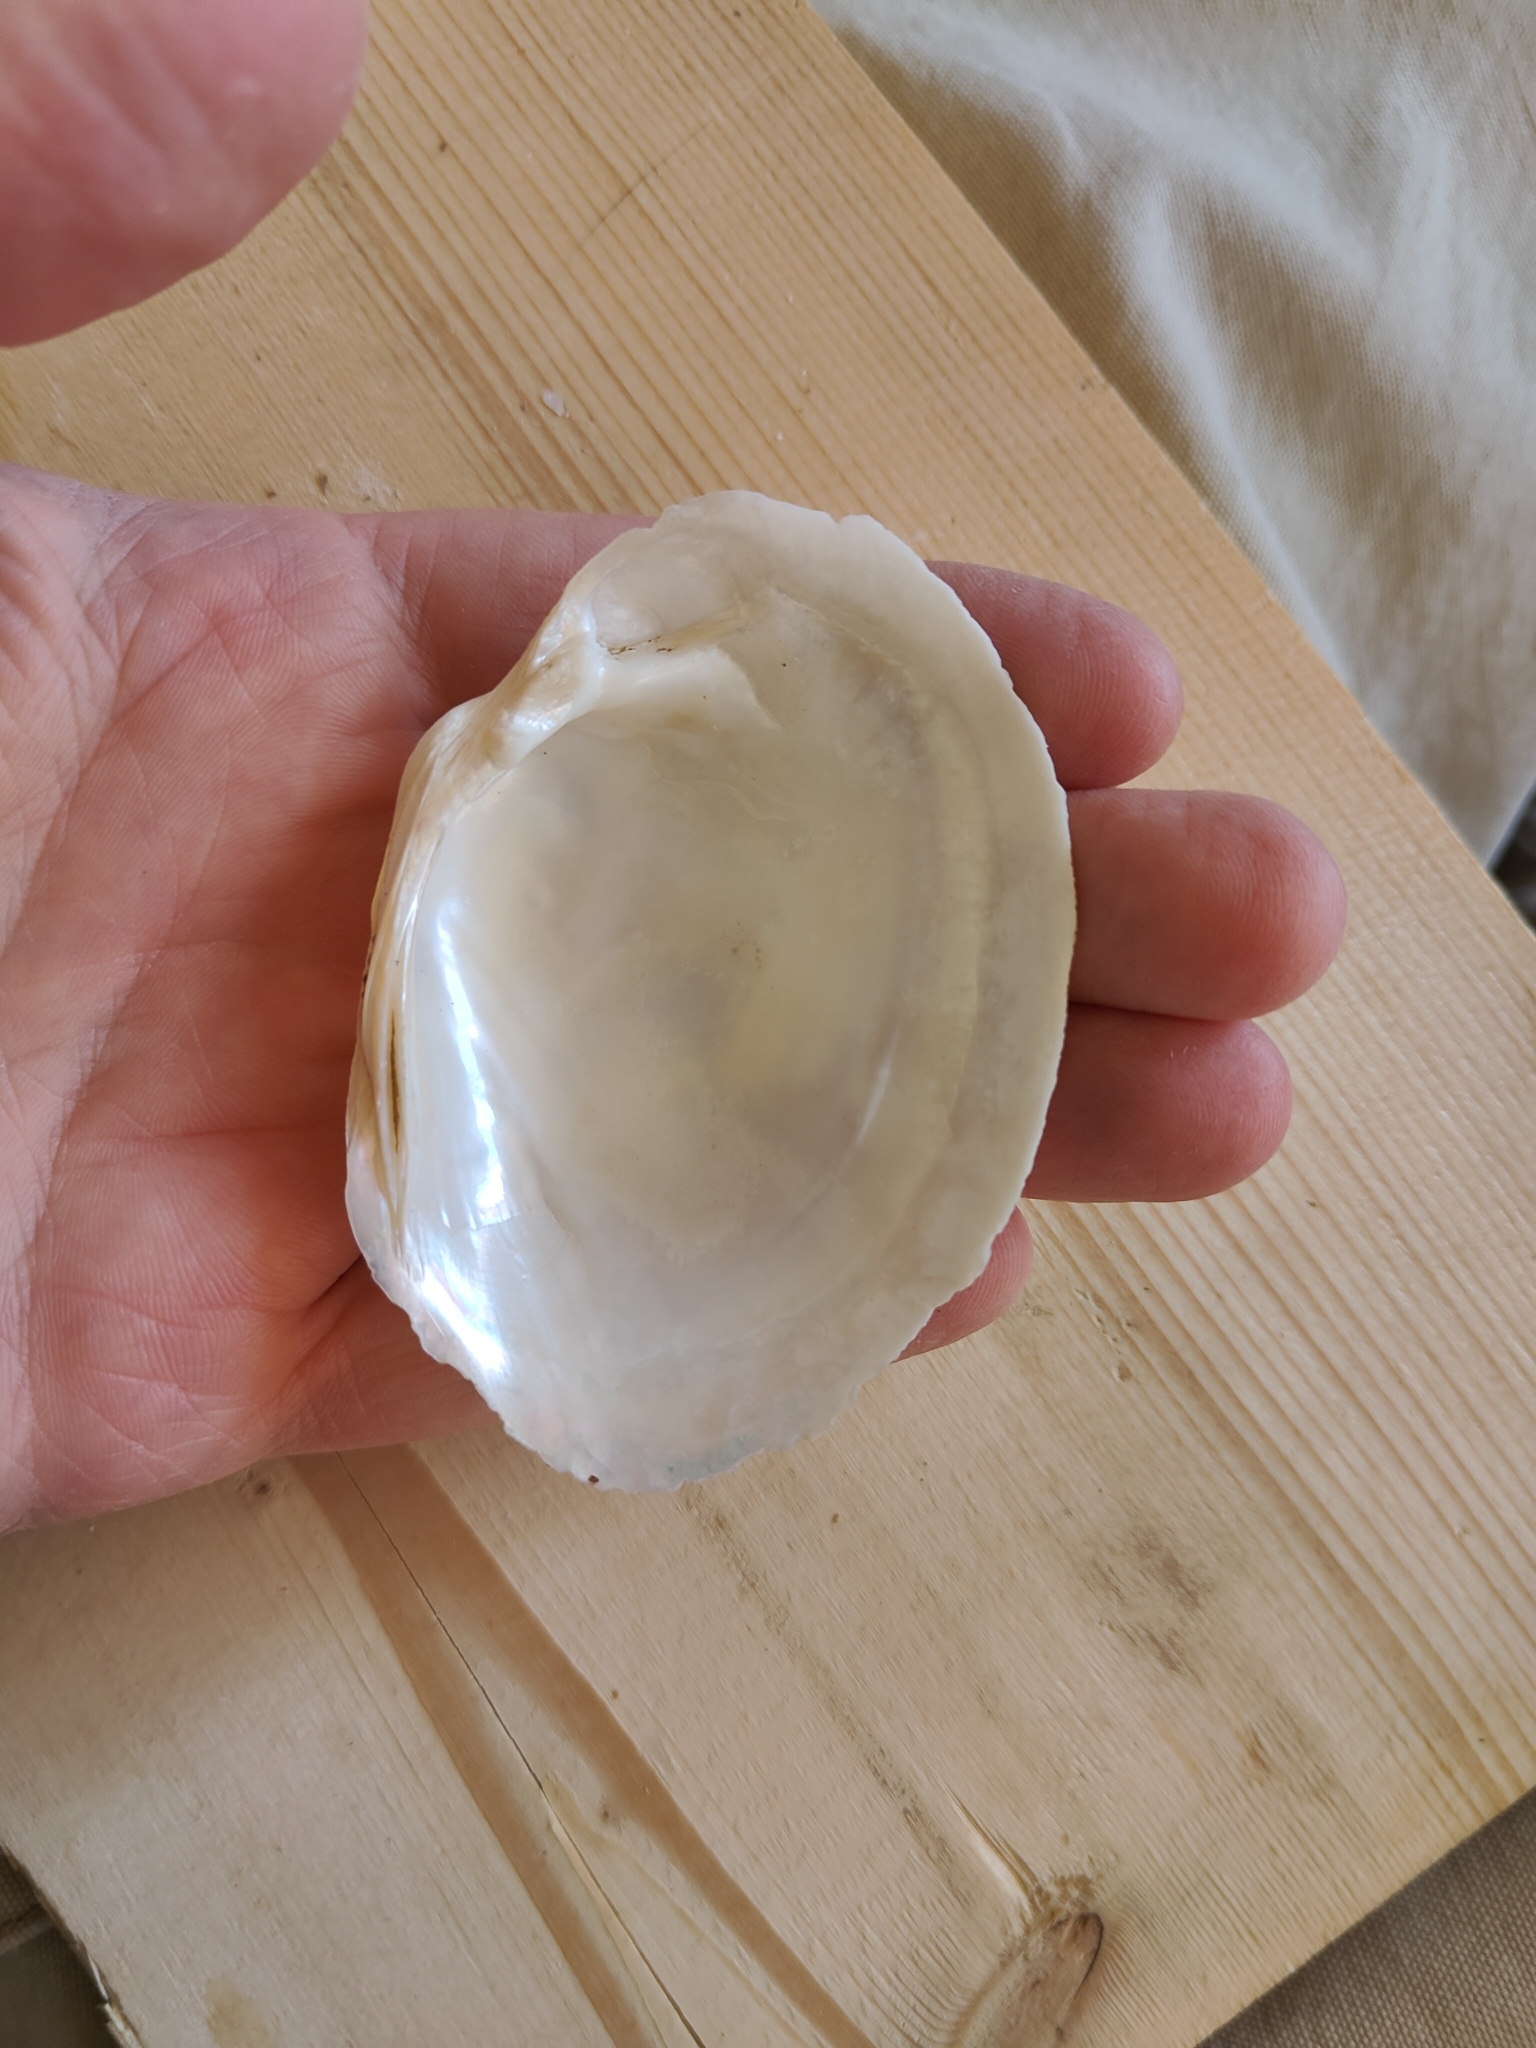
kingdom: Animalia
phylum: Mollusca
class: Bivalvia
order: Unionida
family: Unionidae
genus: Lampsilis
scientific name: Lampsilis cardium
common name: Plain pocketbook
